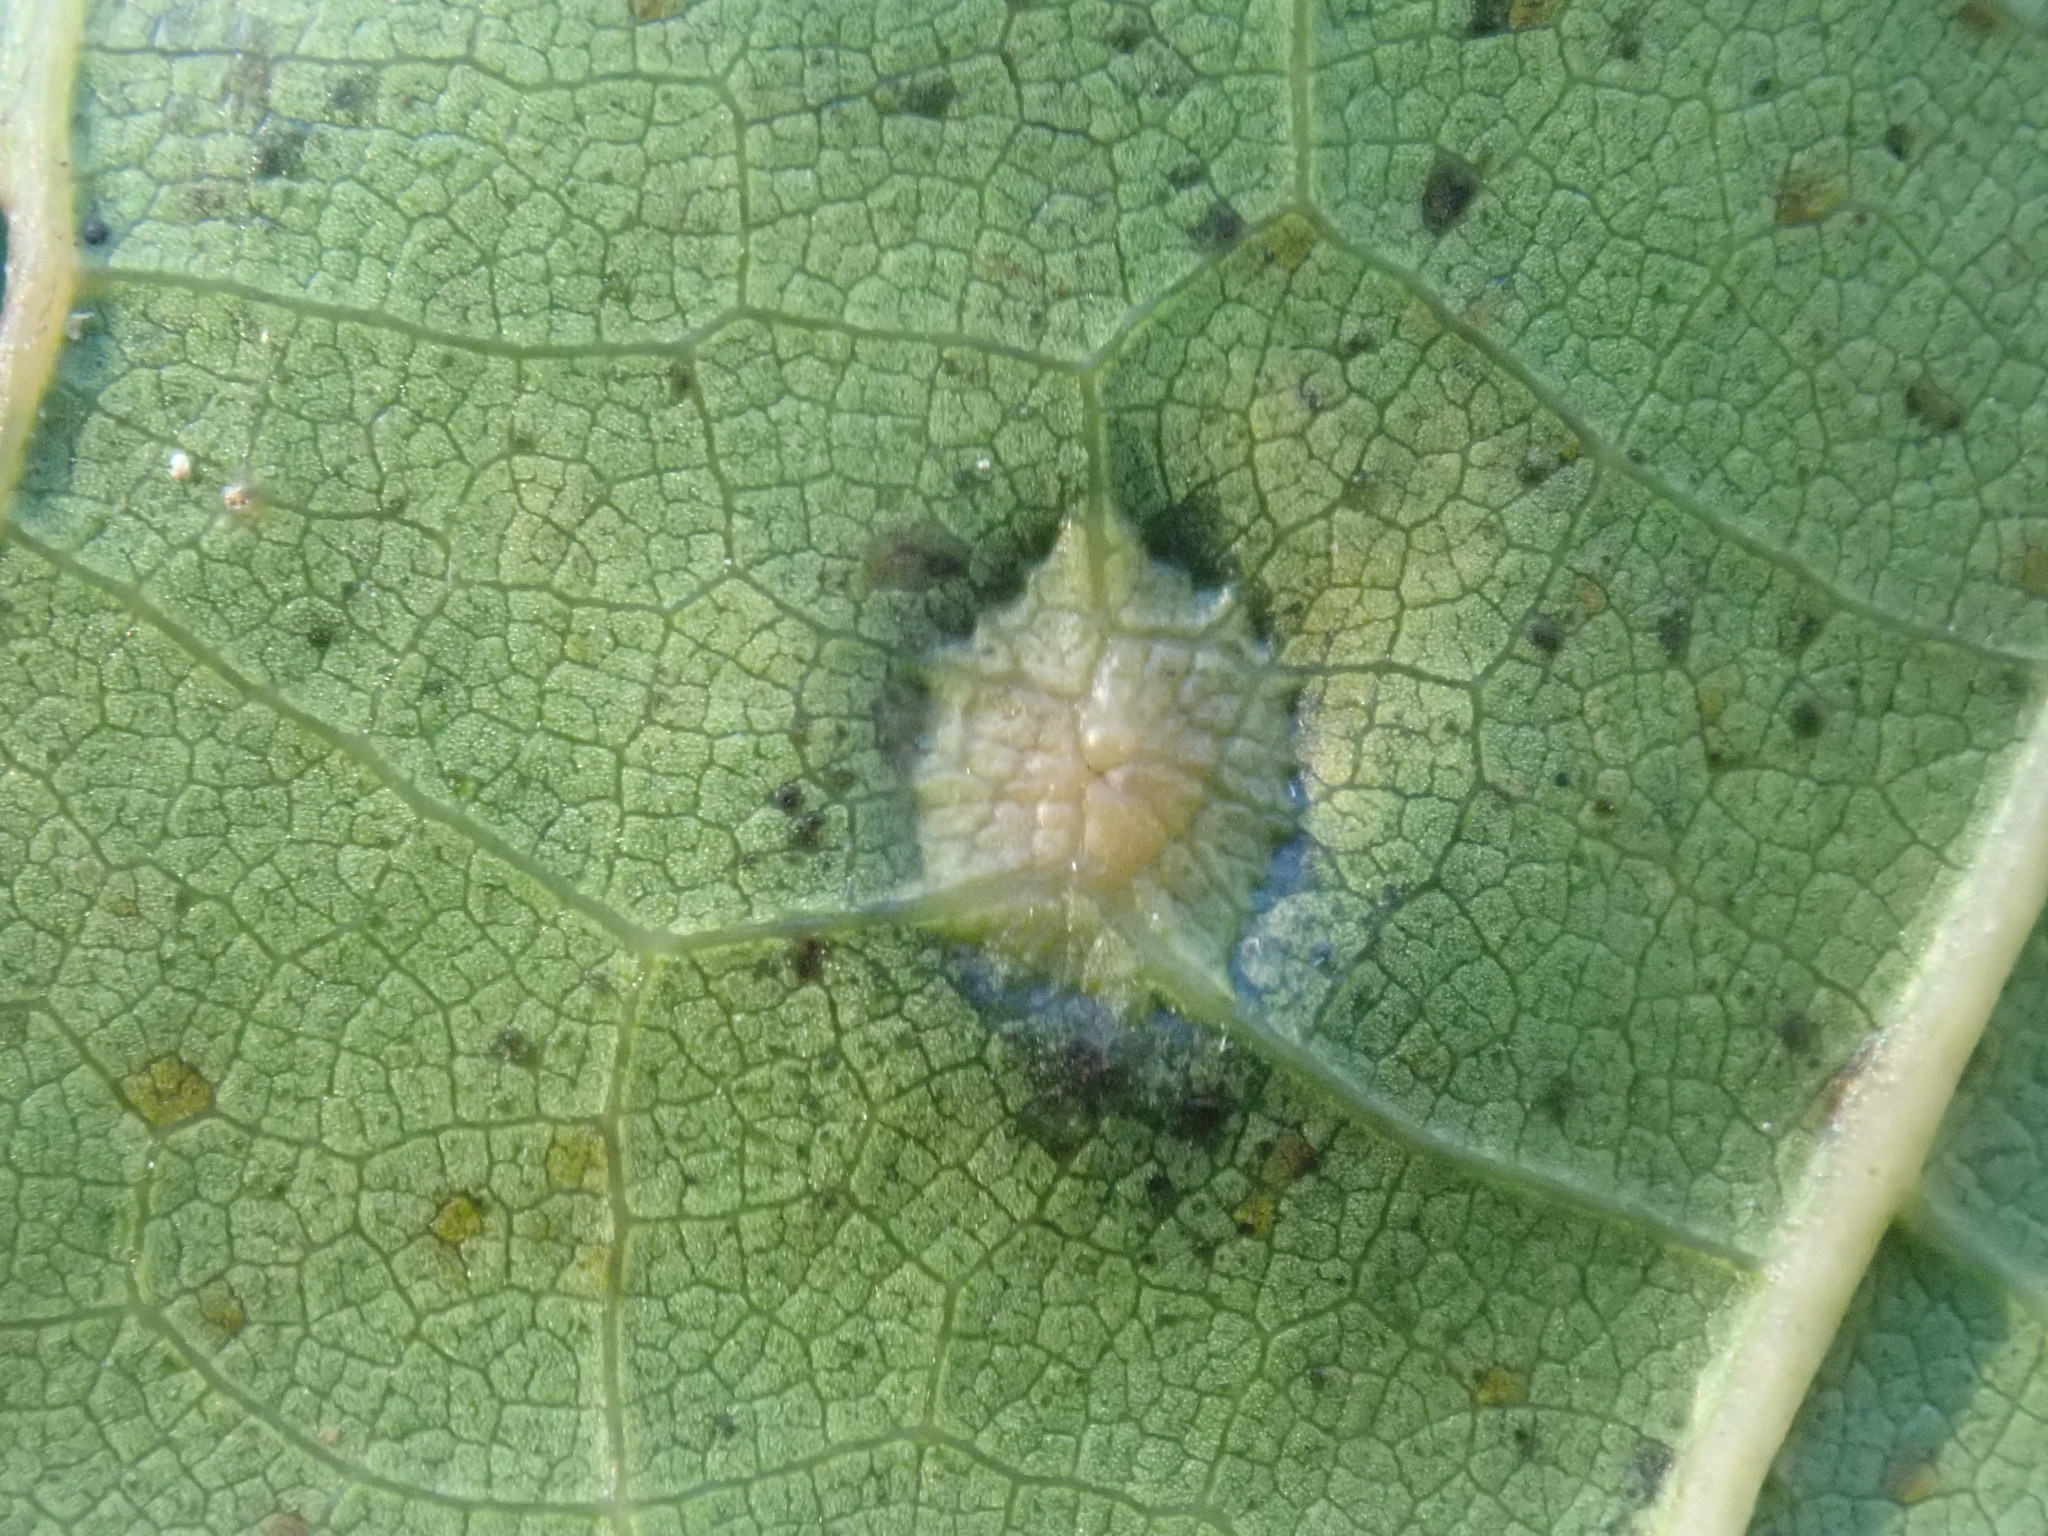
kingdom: Animalia
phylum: Arthropoda
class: Insecta
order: Diptera
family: Cecidomyiidae
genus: Polystepha
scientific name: Polystepha pilulae
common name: Oak leaf gall midge
